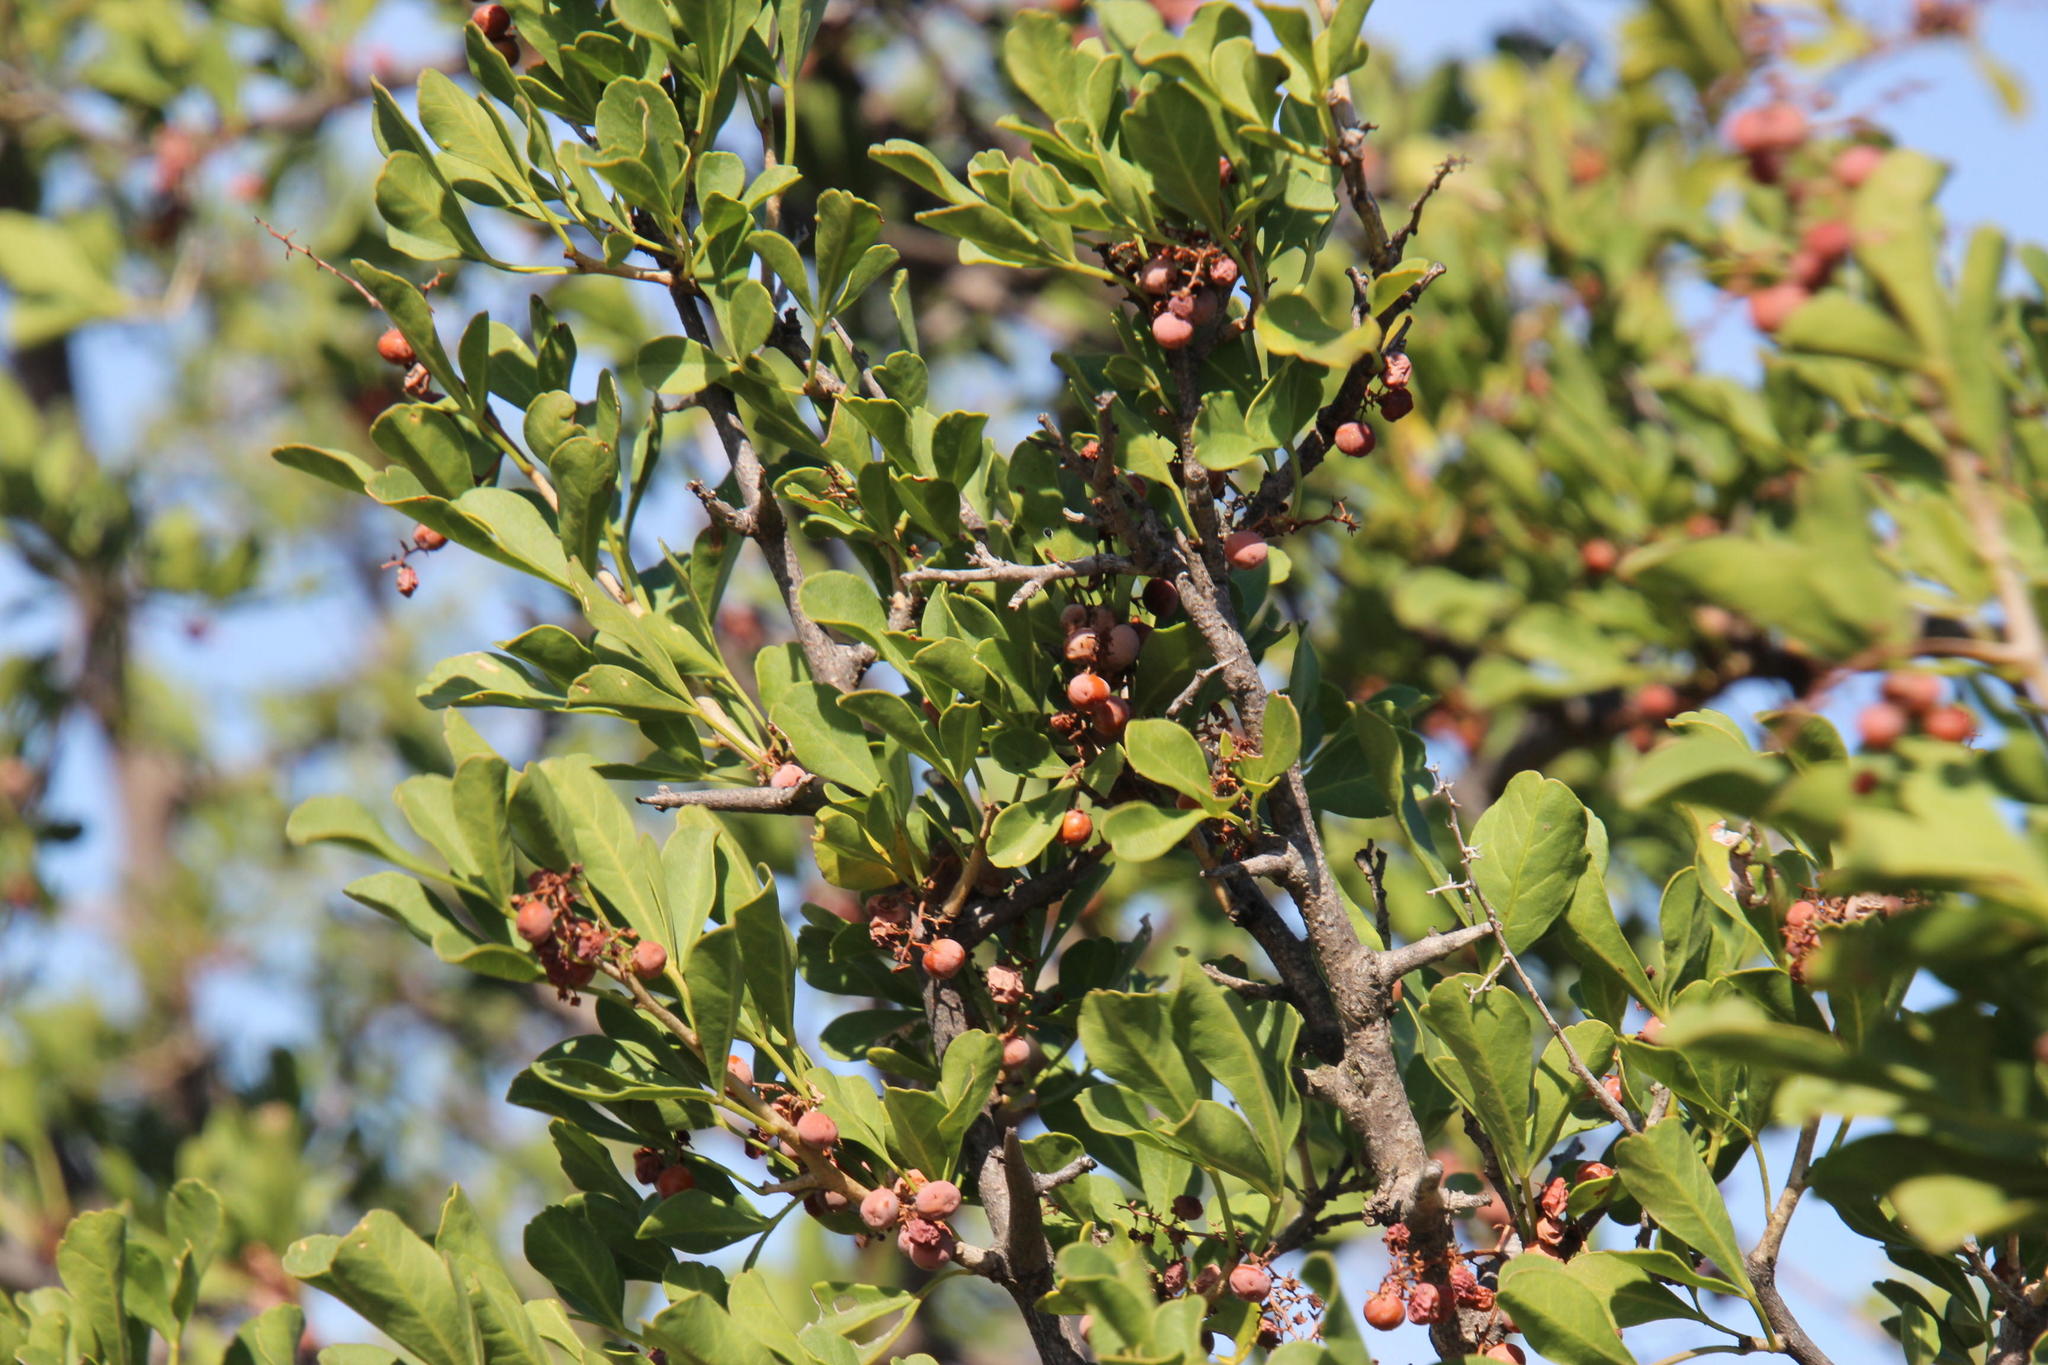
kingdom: Plantae
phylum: Tracheophyta
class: Magnoliopsida
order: Sapindales
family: Anacardiaceae
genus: Searsia
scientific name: Searsia longispina
